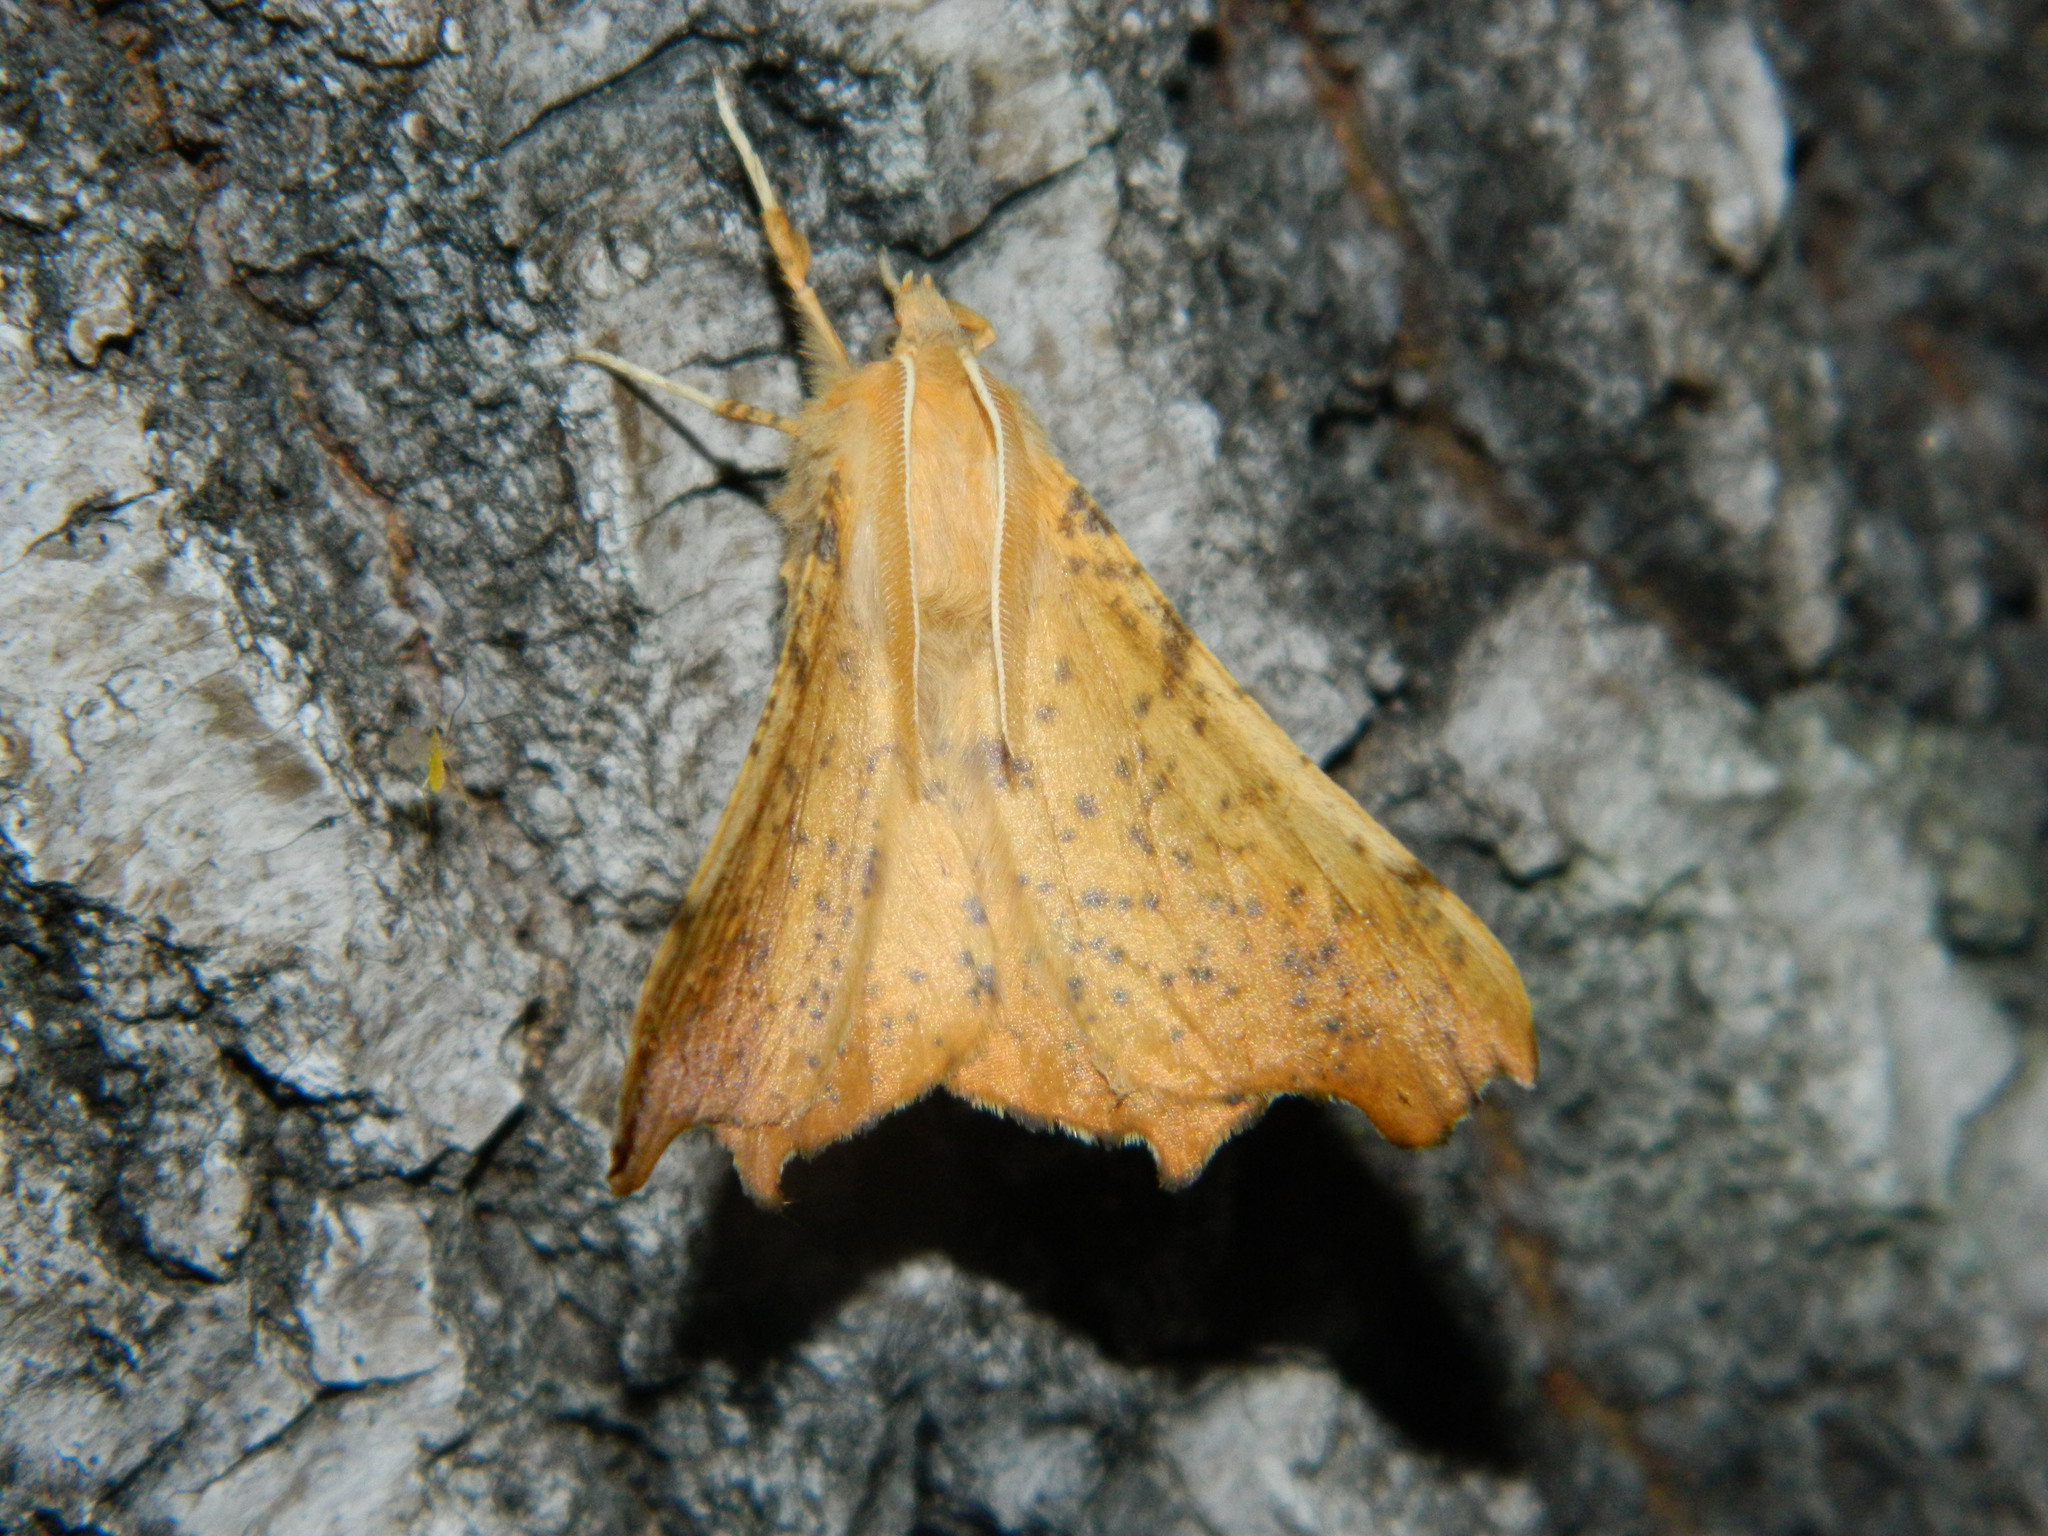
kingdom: Animalia
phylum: Arthropoda
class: Insecta
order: Lepidoptera
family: Geometridae
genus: Ennomos
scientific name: Ennomos magnaria
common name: Maple spanworm
